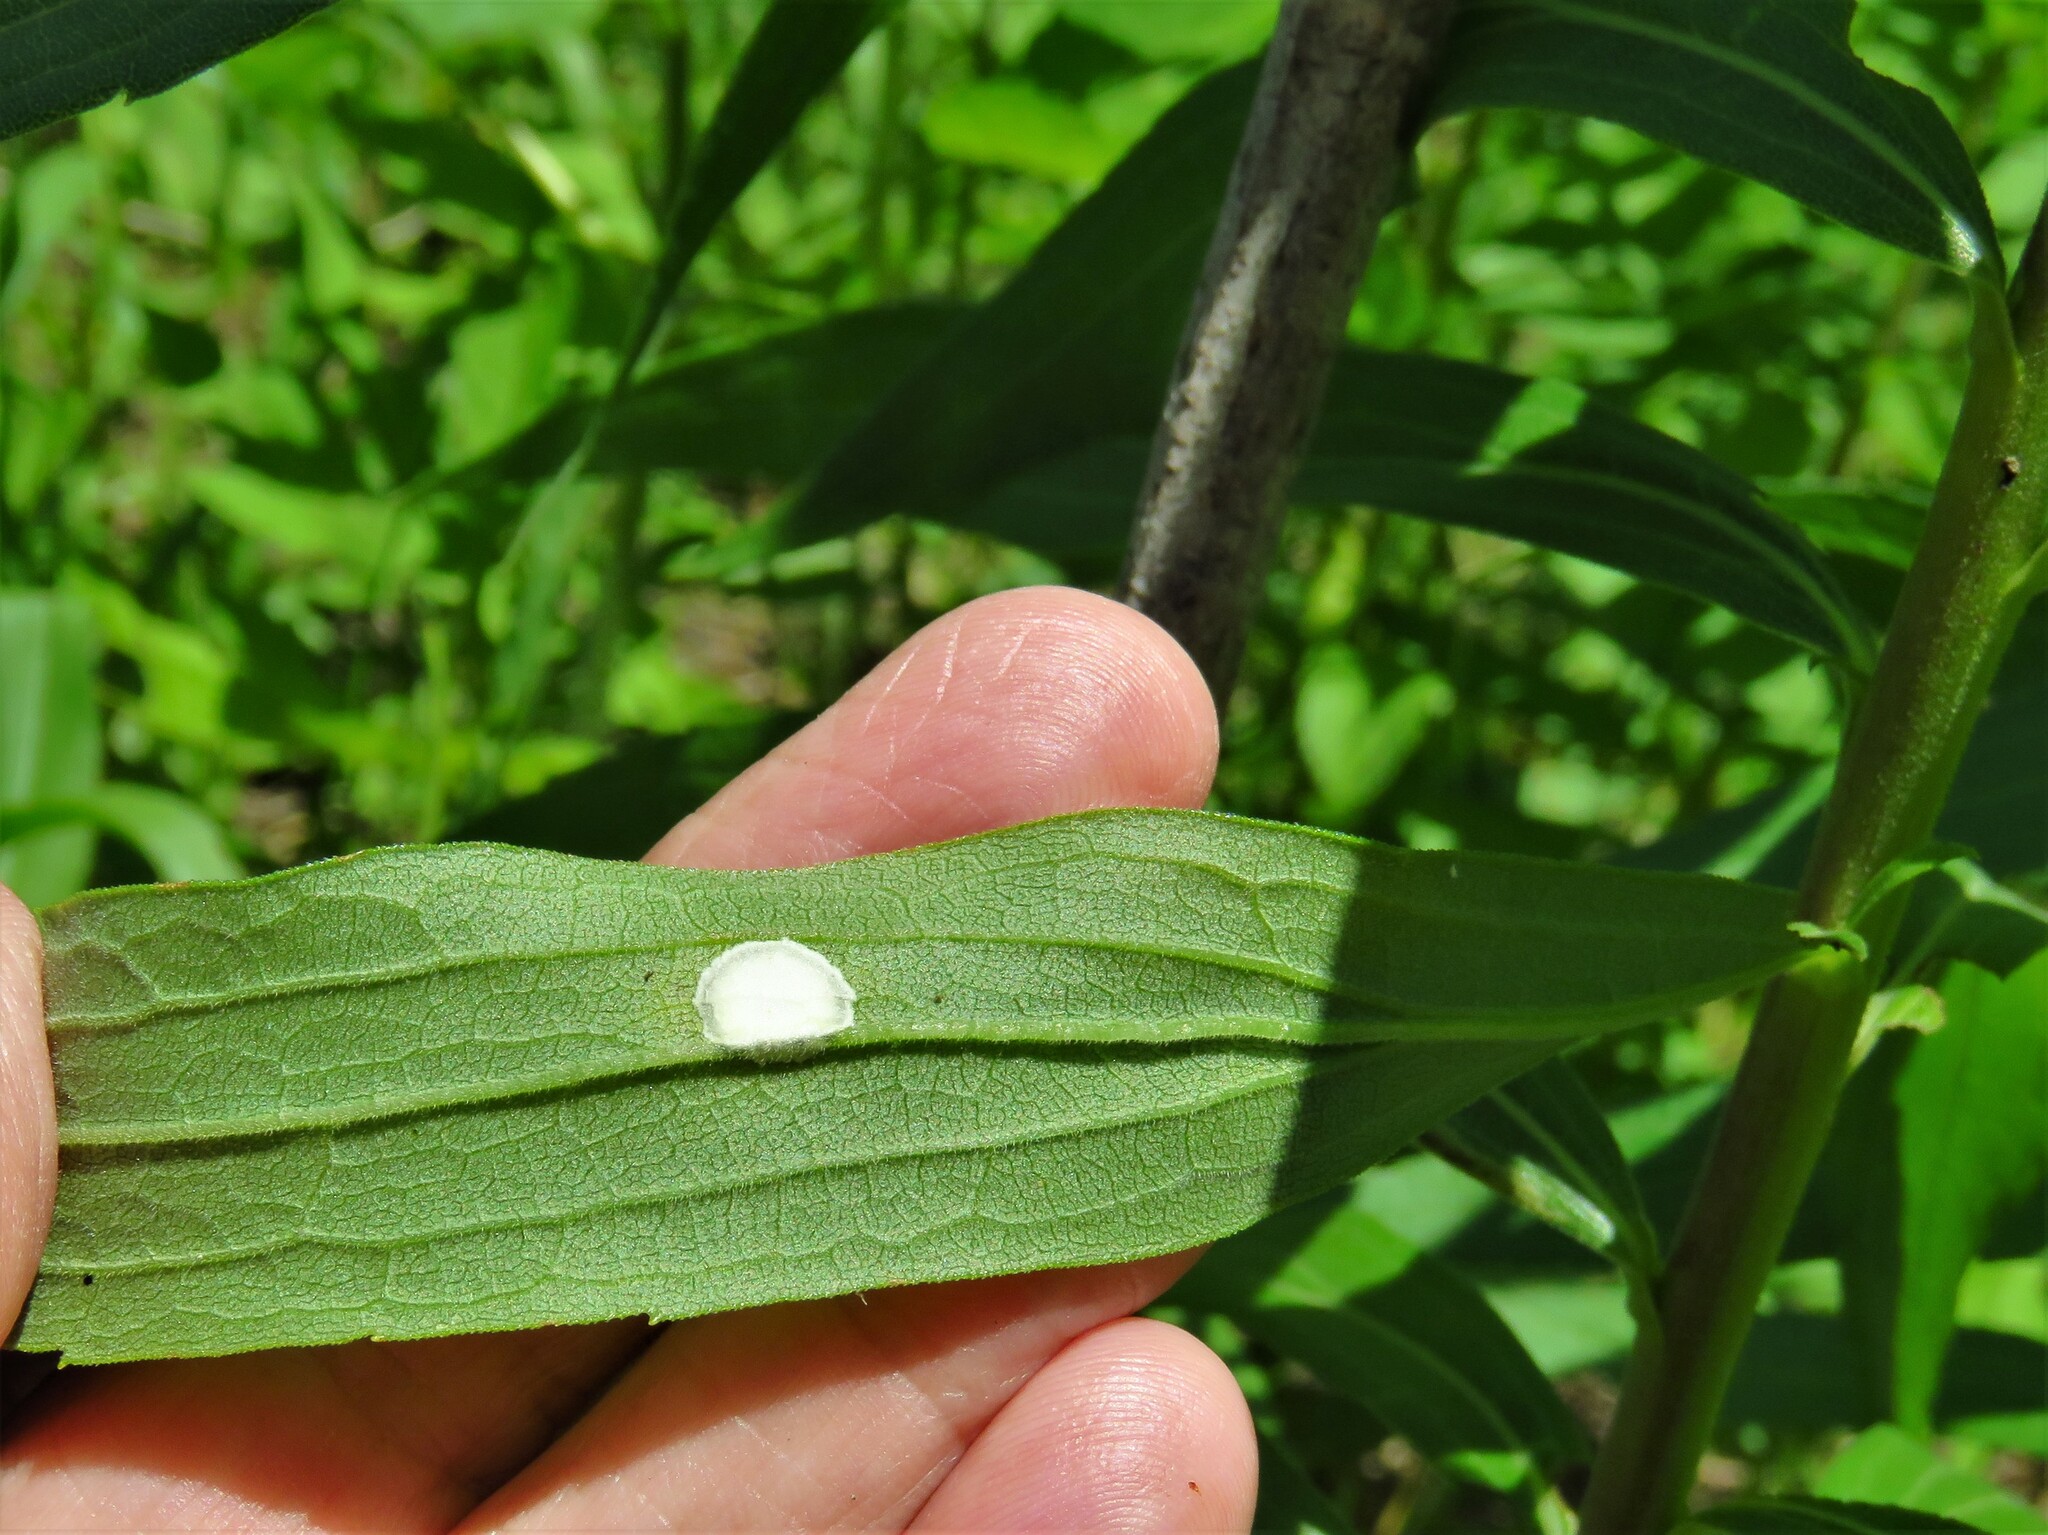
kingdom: Animalia
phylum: Arthropoda
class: Insecta
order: Diptera
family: Cecidomyiidae
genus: Asteromyia
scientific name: Asteromyia carbonifera
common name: Carbonifera goldenrod gall midge
